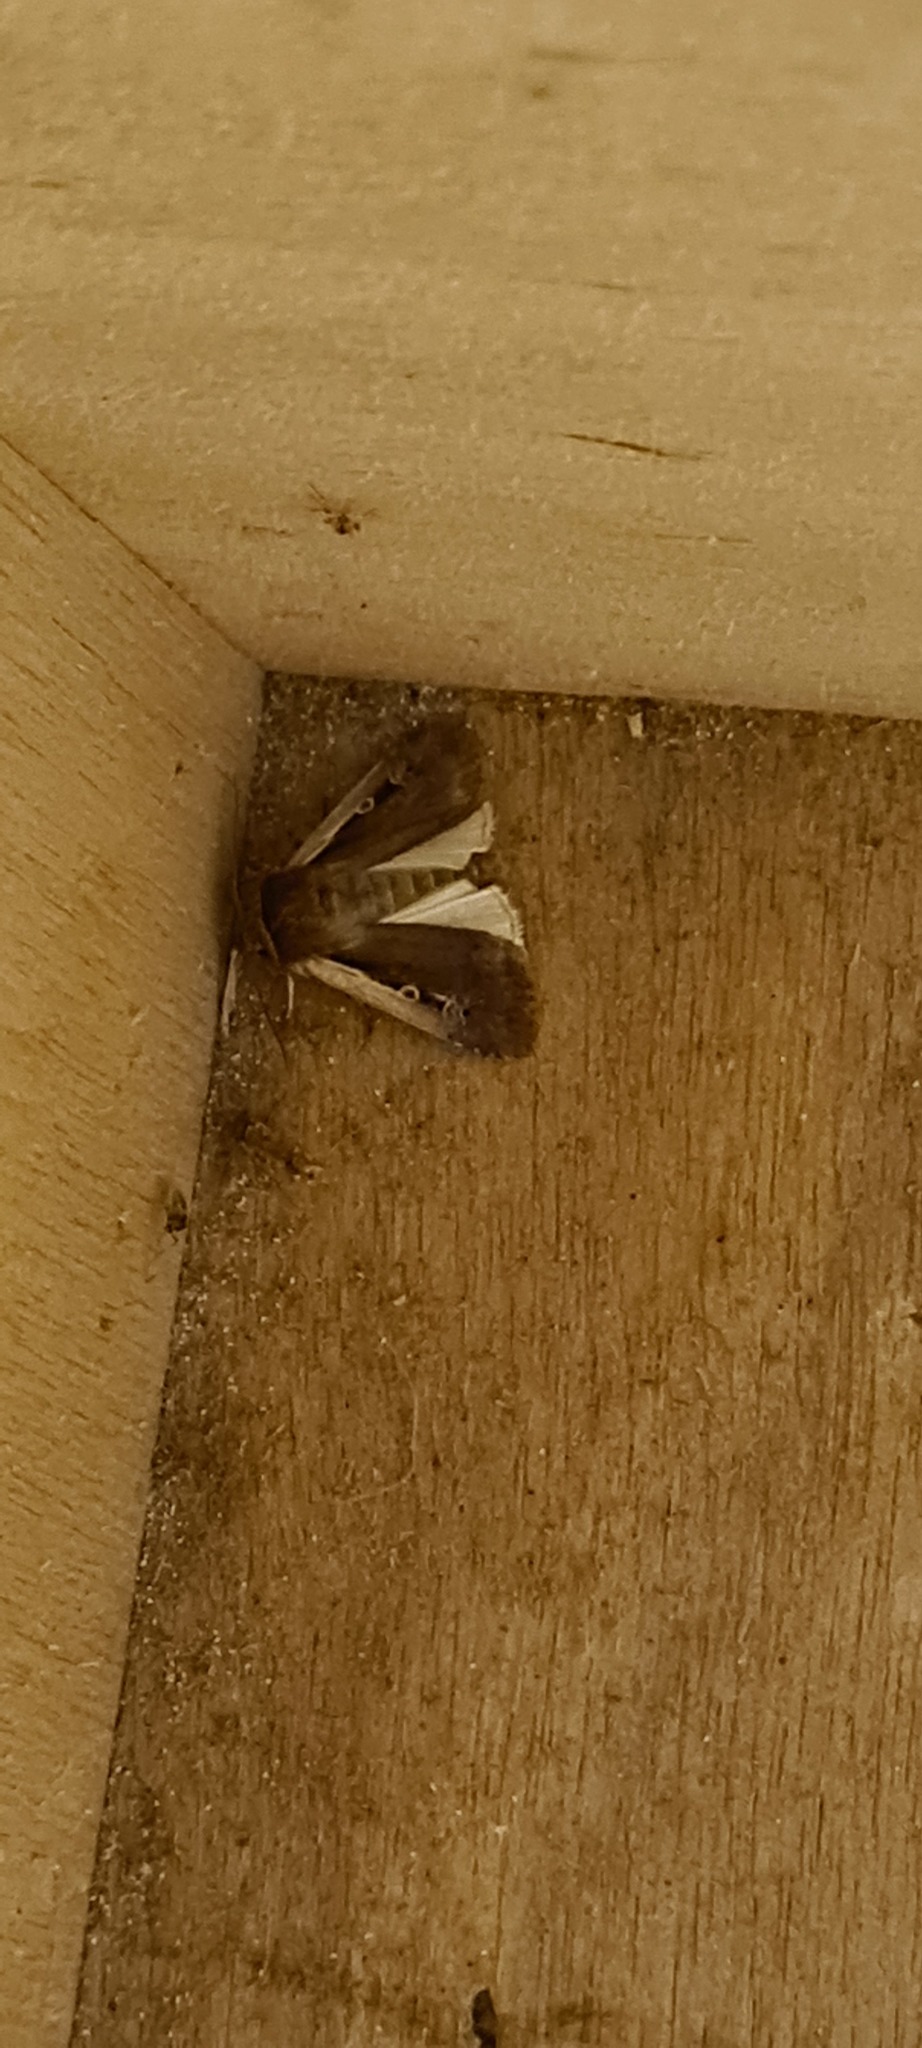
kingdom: Animalia
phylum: Arthropoda
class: Insecta
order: Lepidoptera
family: Noctuidae
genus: Ochropleura
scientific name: Ochropleura plecta
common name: Flame shoulder
